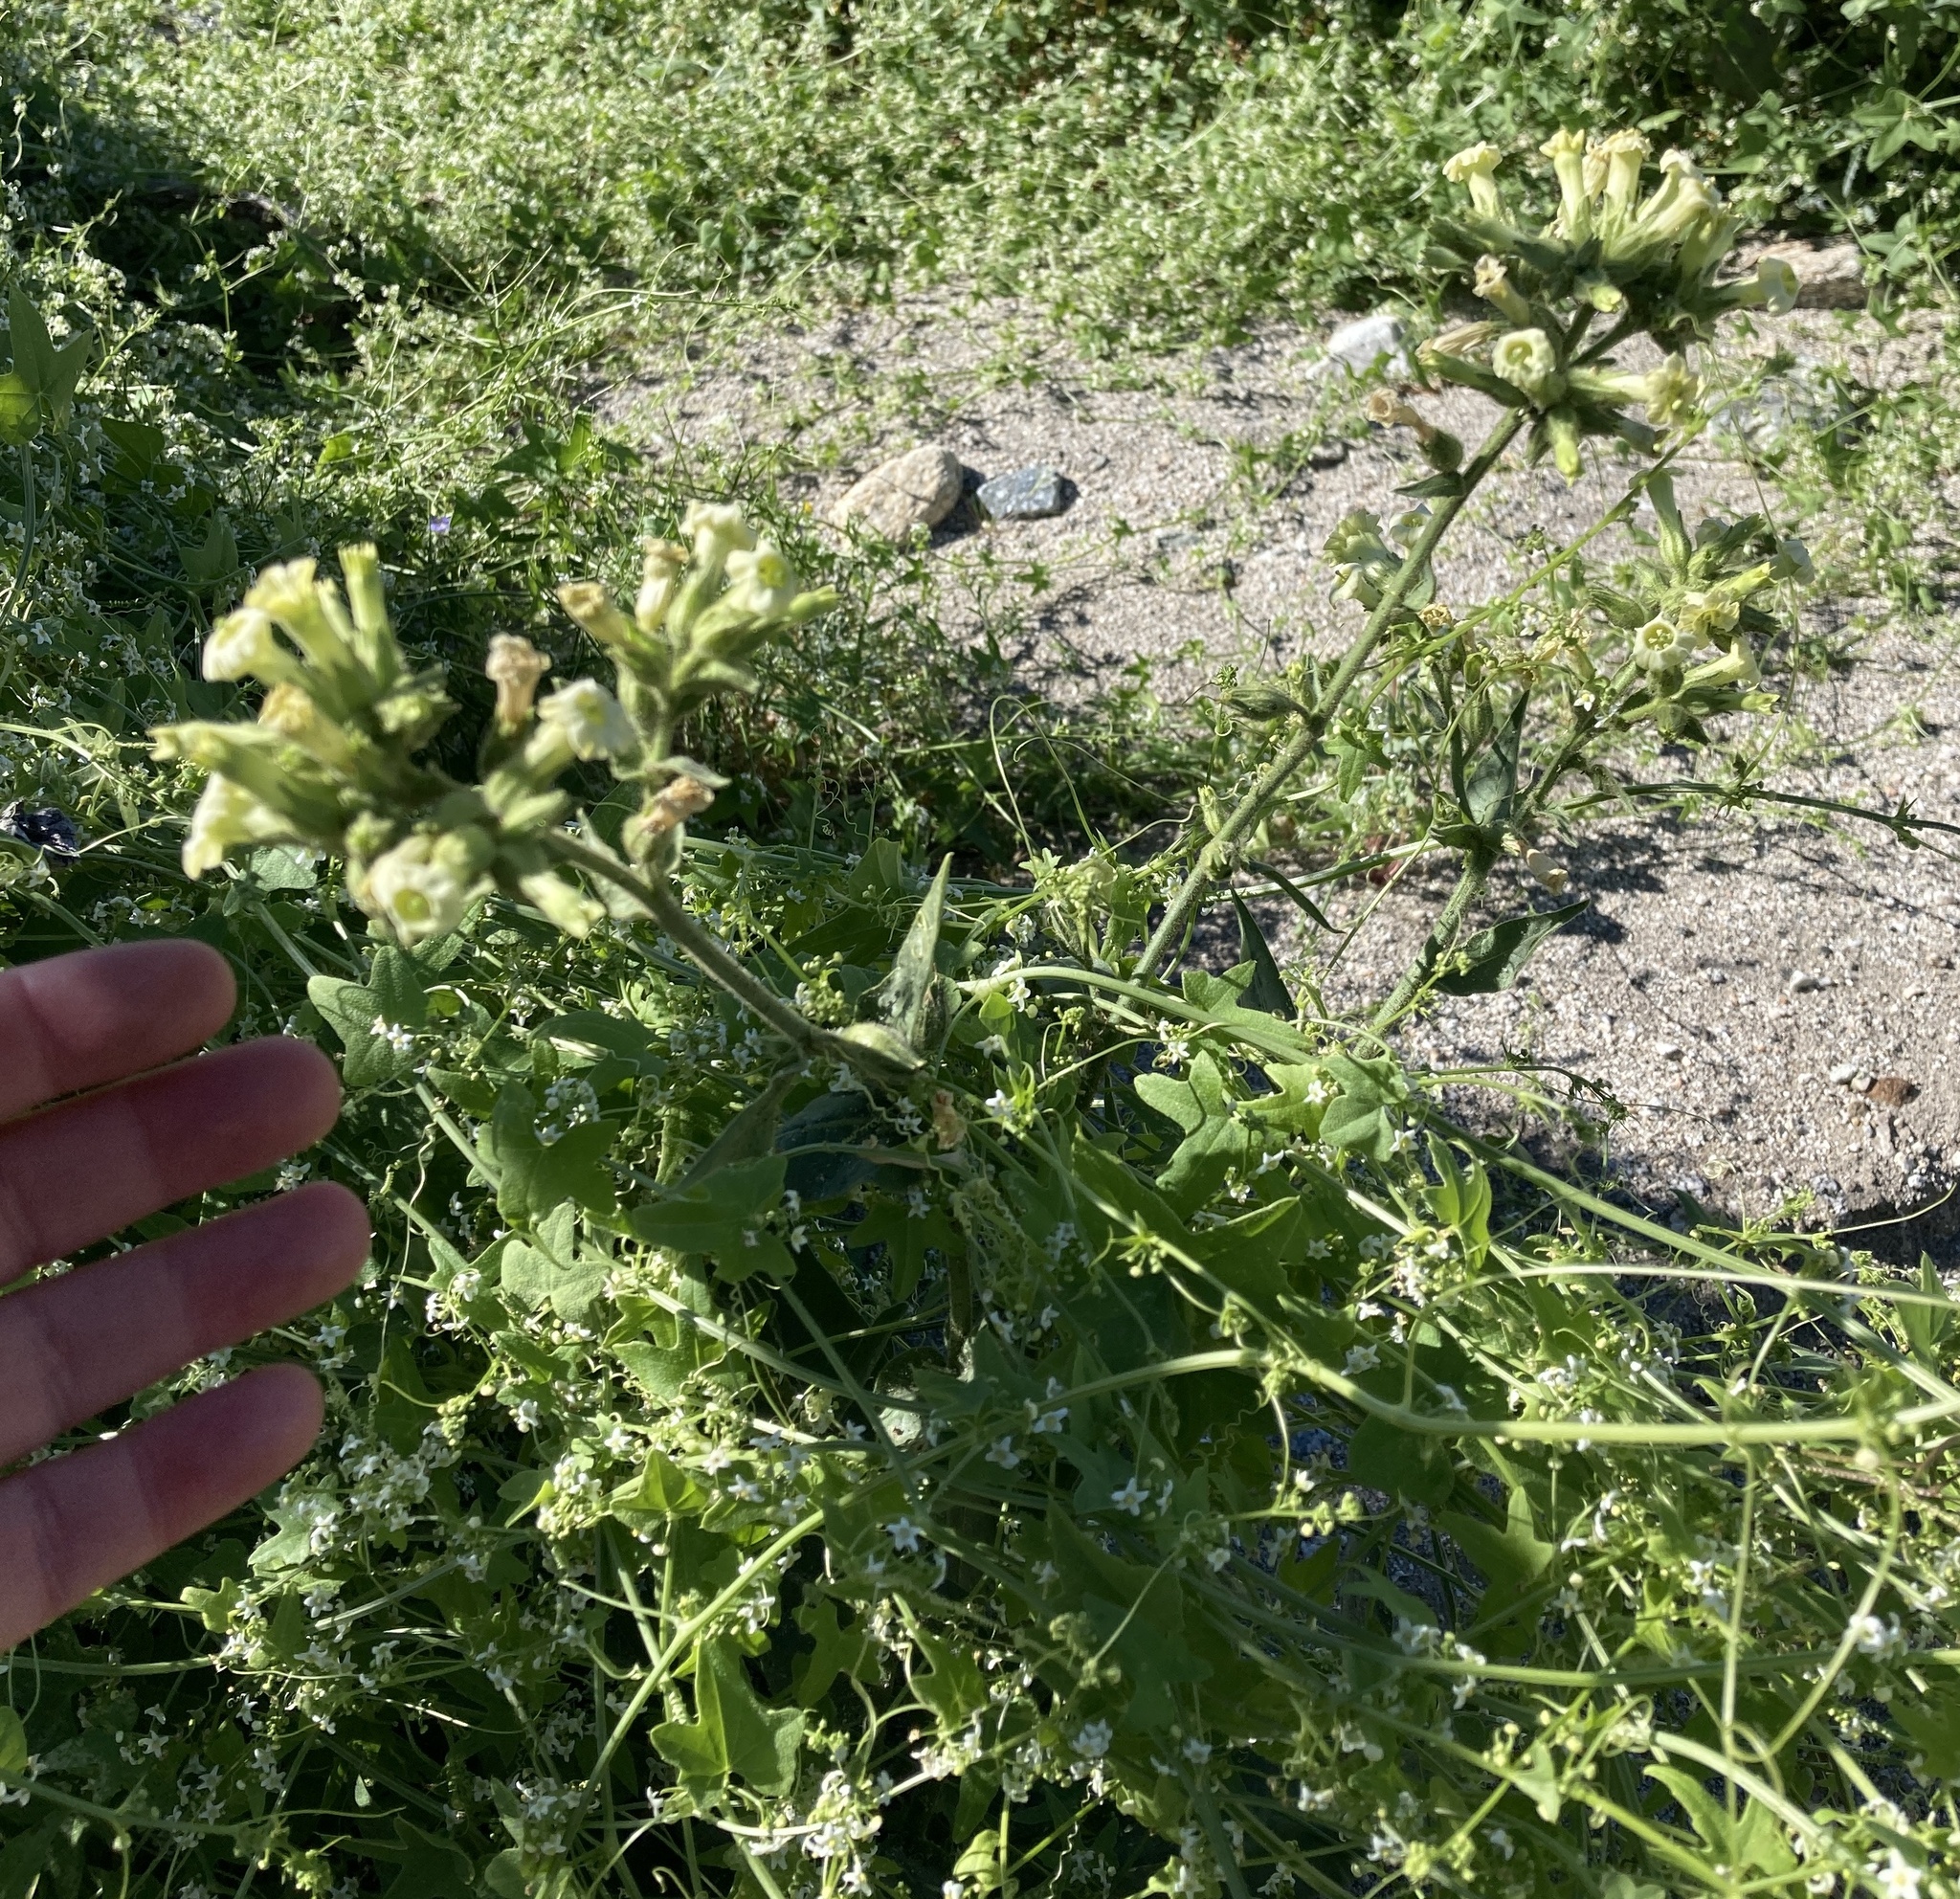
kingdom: Plantae
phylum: Tracheophyta
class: Magnoliopsida
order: Solanales
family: Solanaceae
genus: Nicotiana
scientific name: Nicotiana obtusifolia
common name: Desert tobacco
